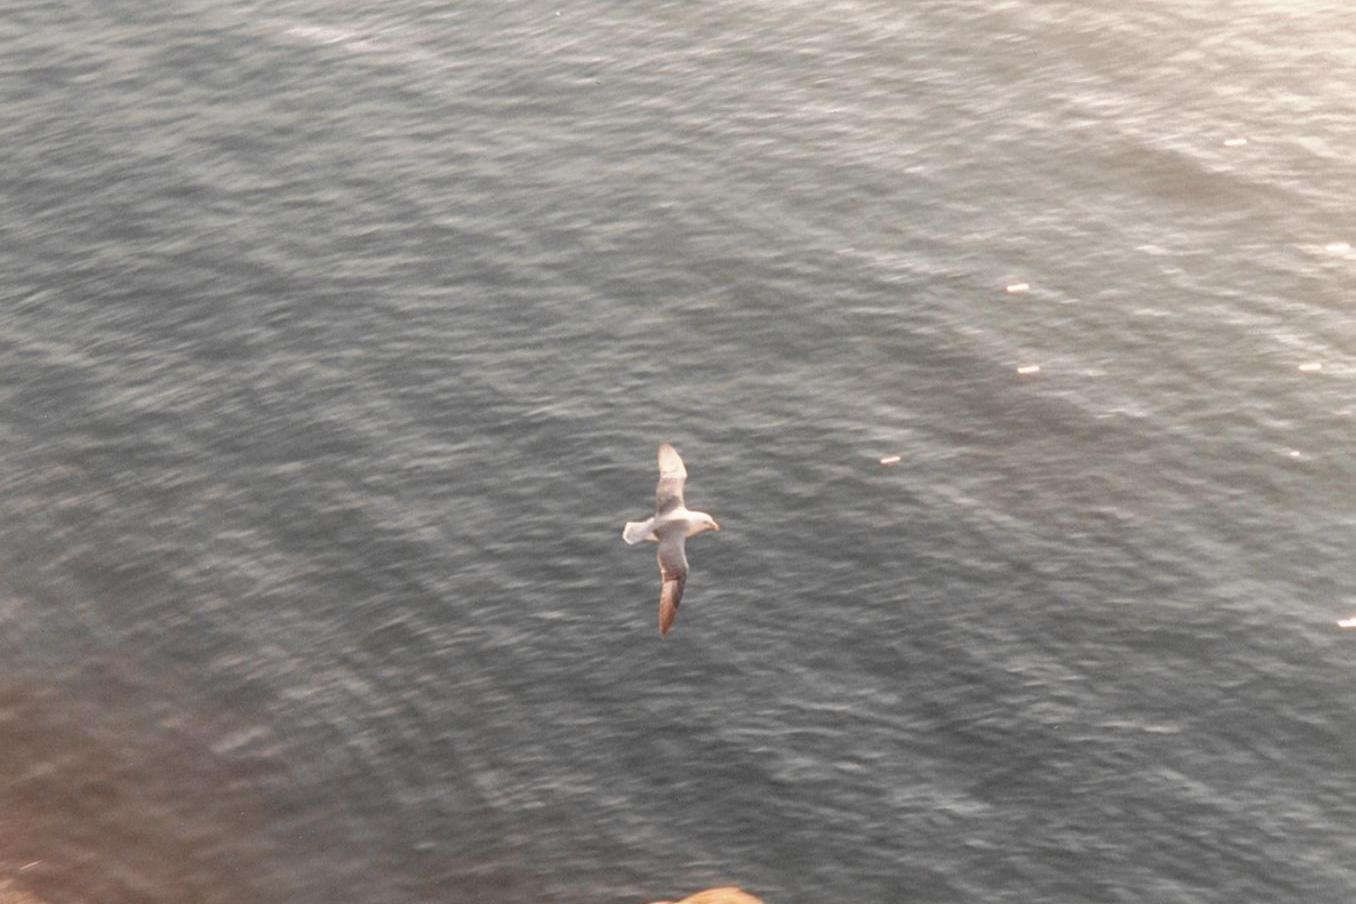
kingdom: Animalia
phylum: Chordata
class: Aves
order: Procellariiformes
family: Procellariidae
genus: Fulmarus
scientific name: Fulmarus glacialis
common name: Northern fulmar
